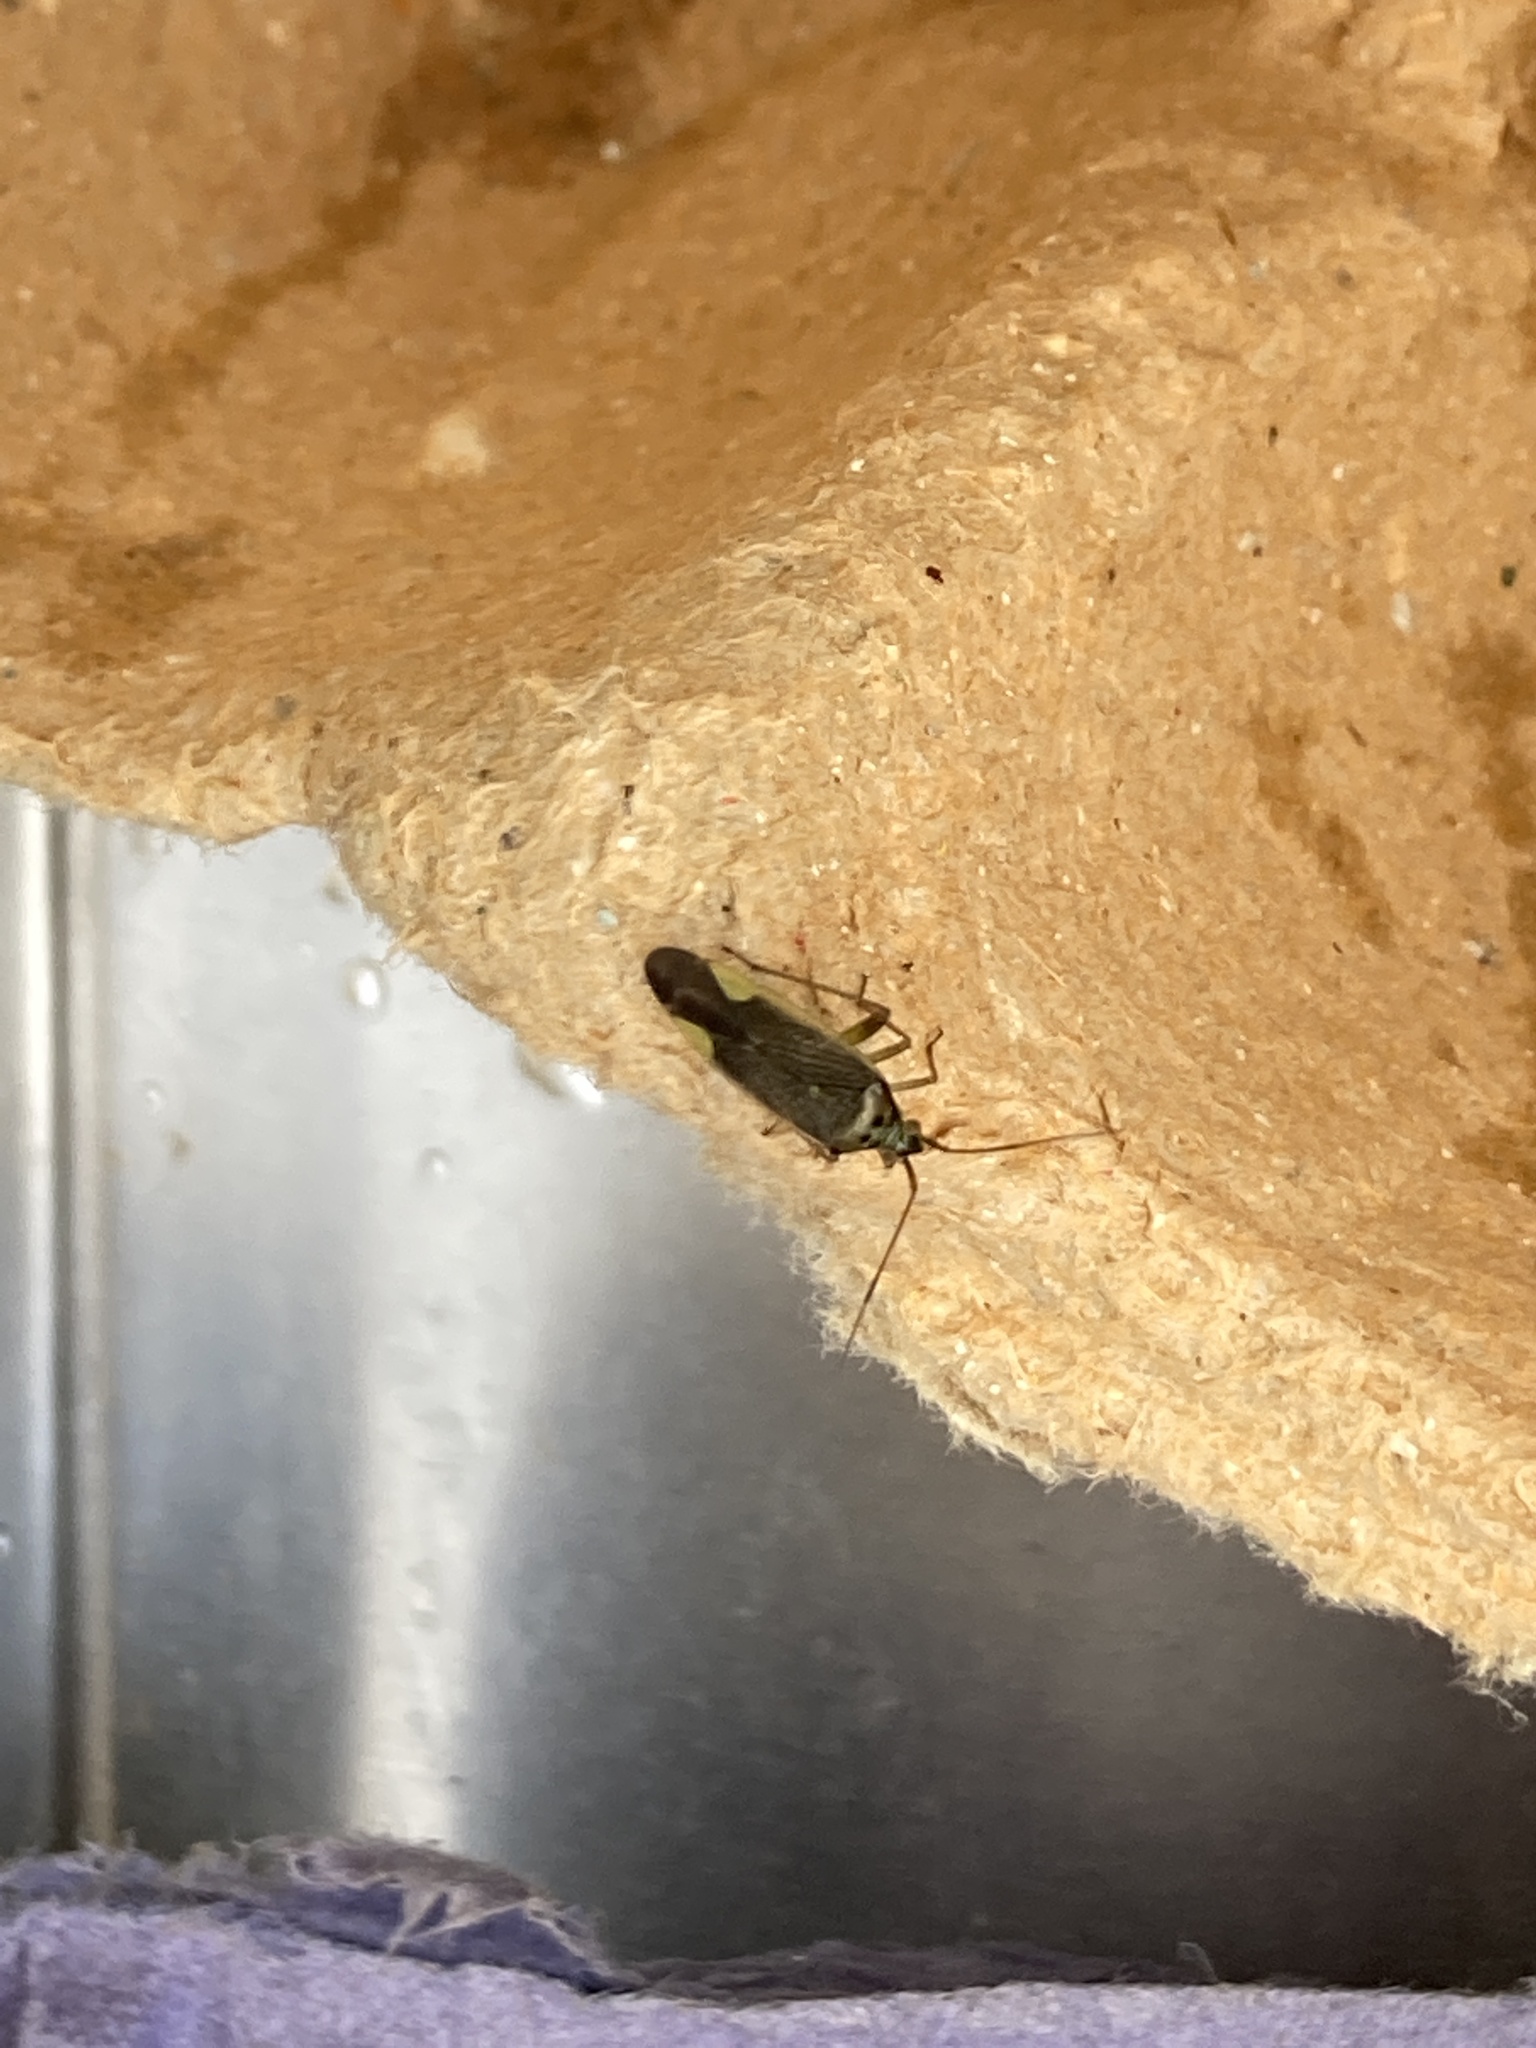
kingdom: Animalia
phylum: Arthropoda
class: Insecta
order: Hemiptera
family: Miridae
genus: Closterotomus
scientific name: Closterotomus trivialis
